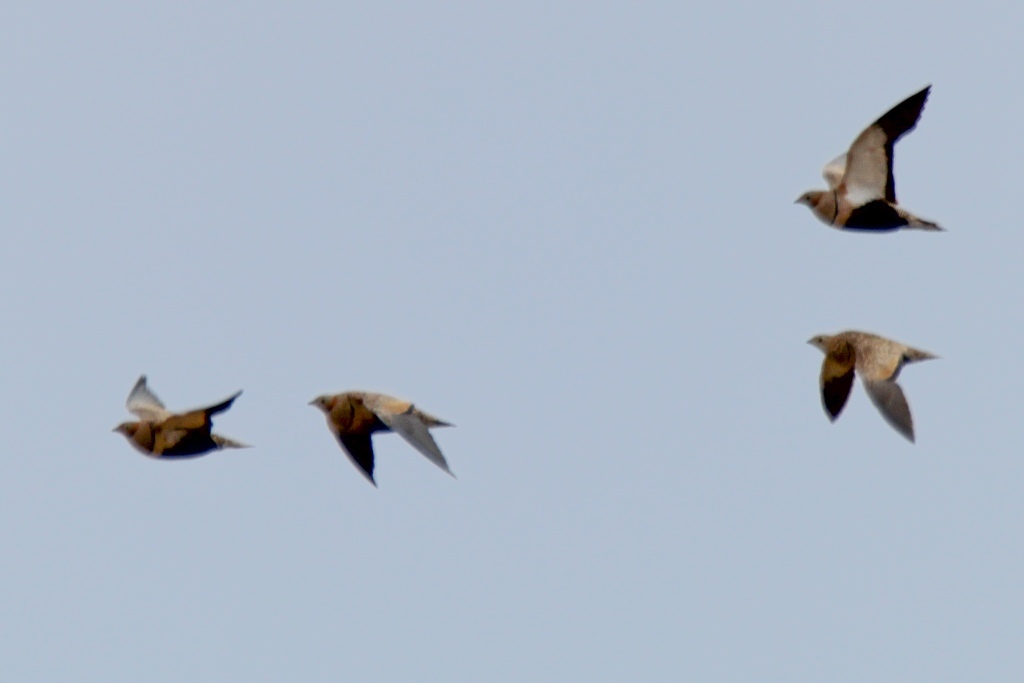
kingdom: Animalia
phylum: Chordata
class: Aves
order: Pteroclidiformes
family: Pteroclididae
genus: Pterocles
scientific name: Pterocles orientalis
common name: Black-bellied sandgrouse
